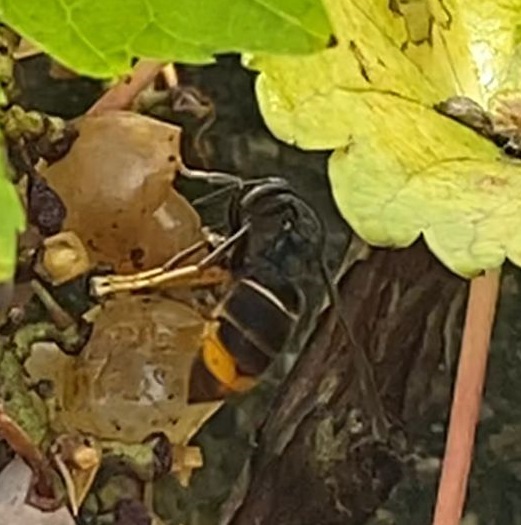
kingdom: Animalia
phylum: Arthropoda
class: Insecta
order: Hymenoptera
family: Vespidae
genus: Vespa
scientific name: Vespa velutina
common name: Asian hornet
